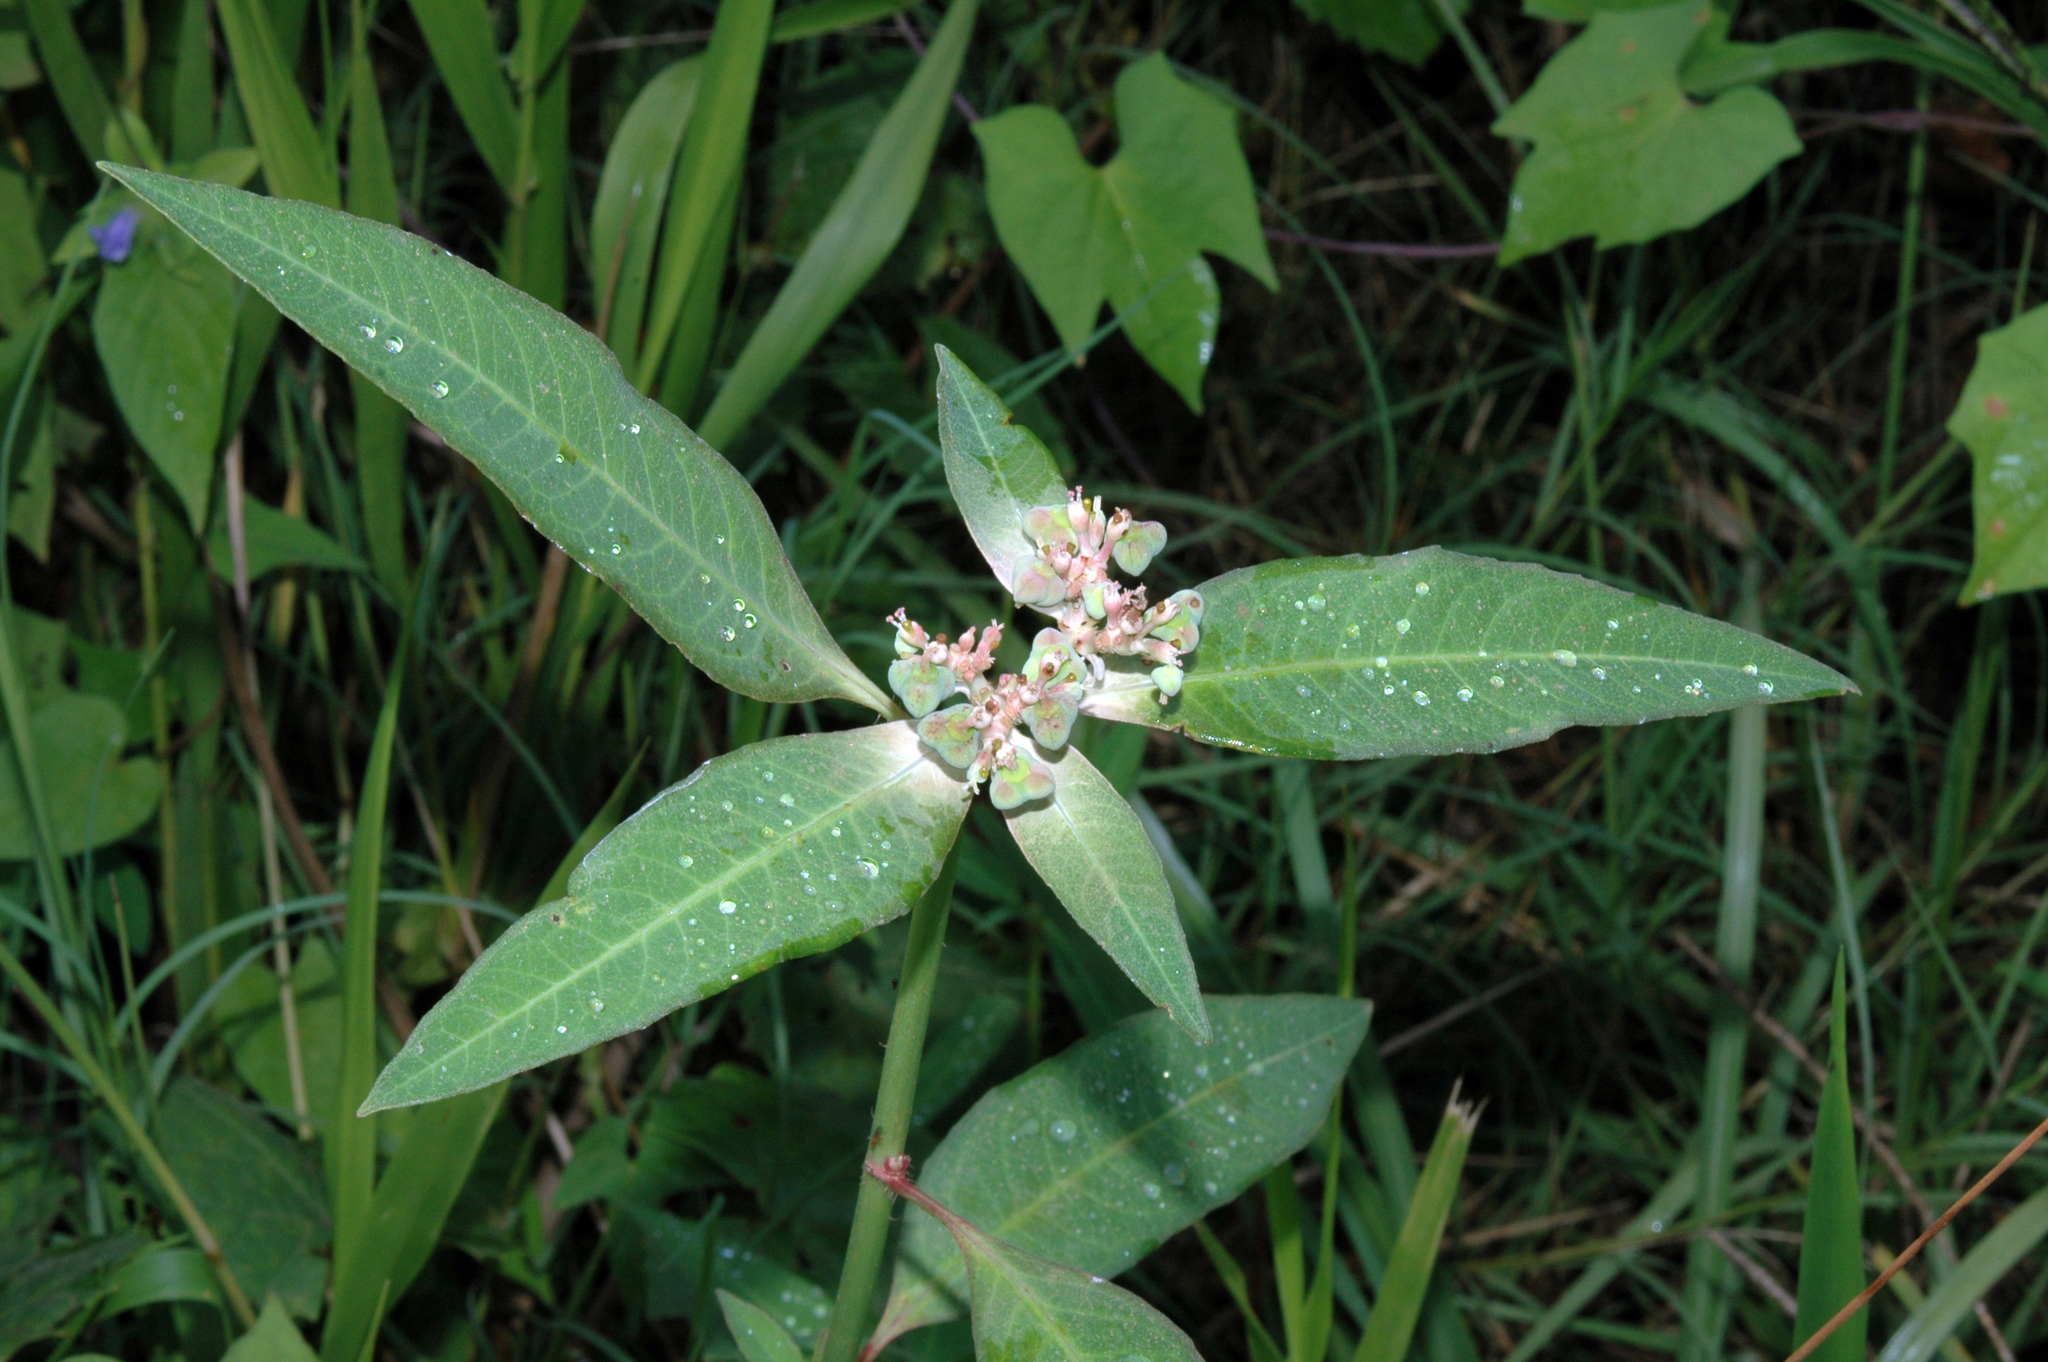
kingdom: Plantae
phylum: Tracheophyta
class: Magnoliopsida
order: Malpighiales
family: Euphorbiaceae
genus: Euphorbia
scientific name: Euphorbia heterophylla
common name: Mexican fireplant
